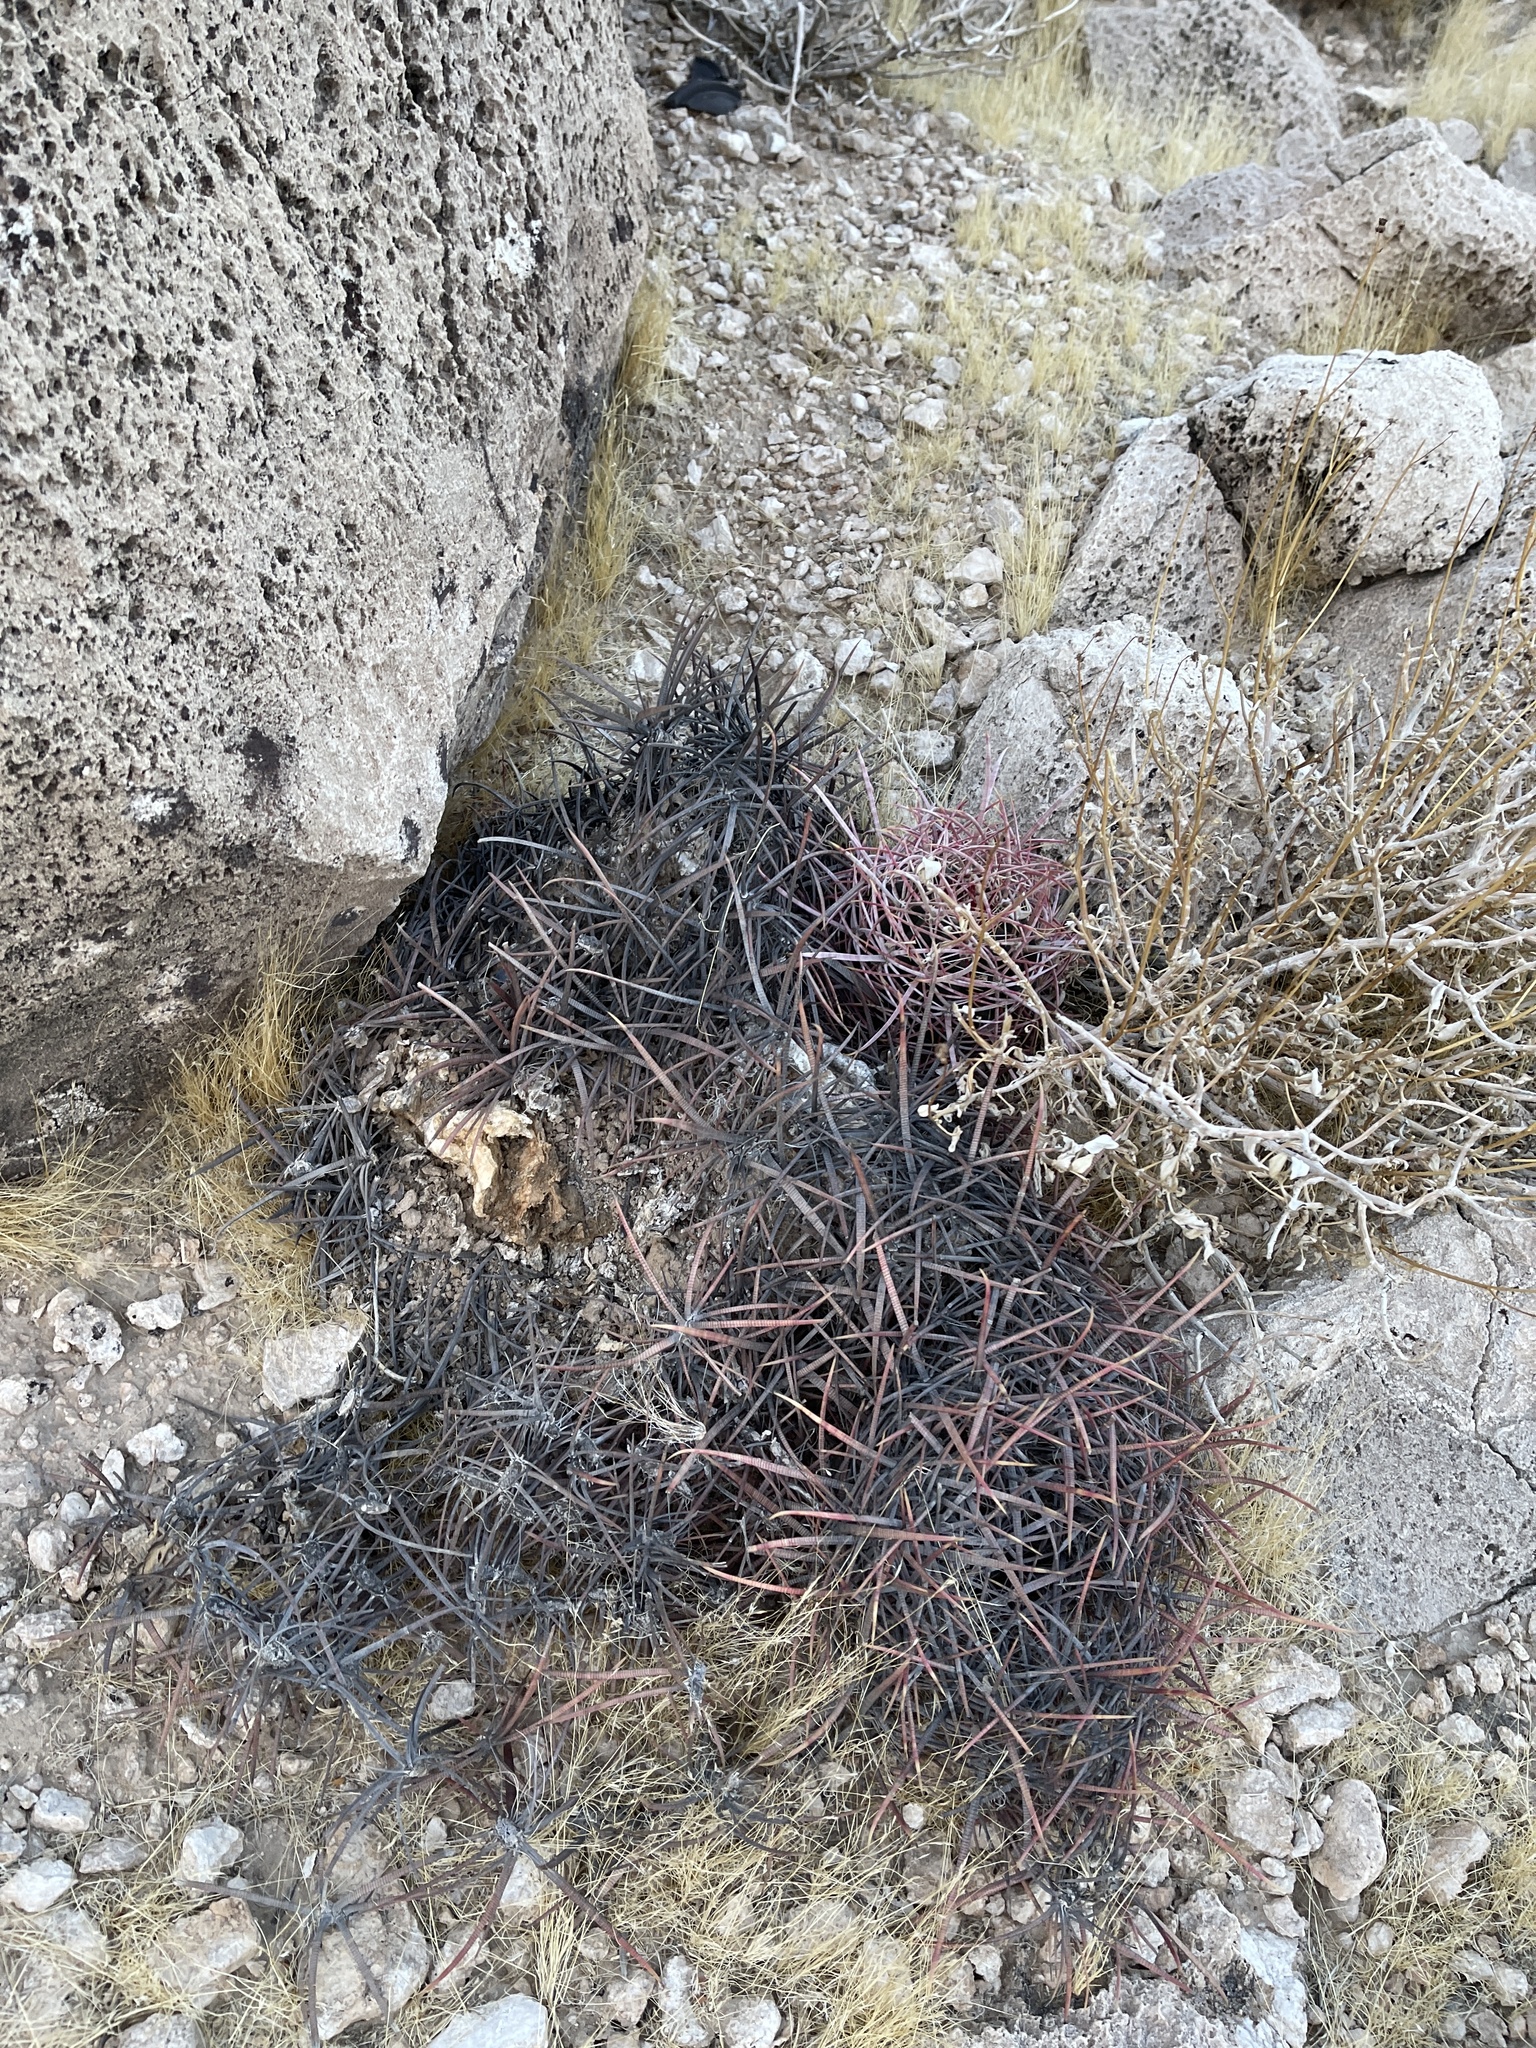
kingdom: Plantae
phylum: Tracheophyta
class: Magnoliopsida
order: Caryophyllales
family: Cactaceae
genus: Ferocactus
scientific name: Ferocactus cylindraceus
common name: California barrel cactus
